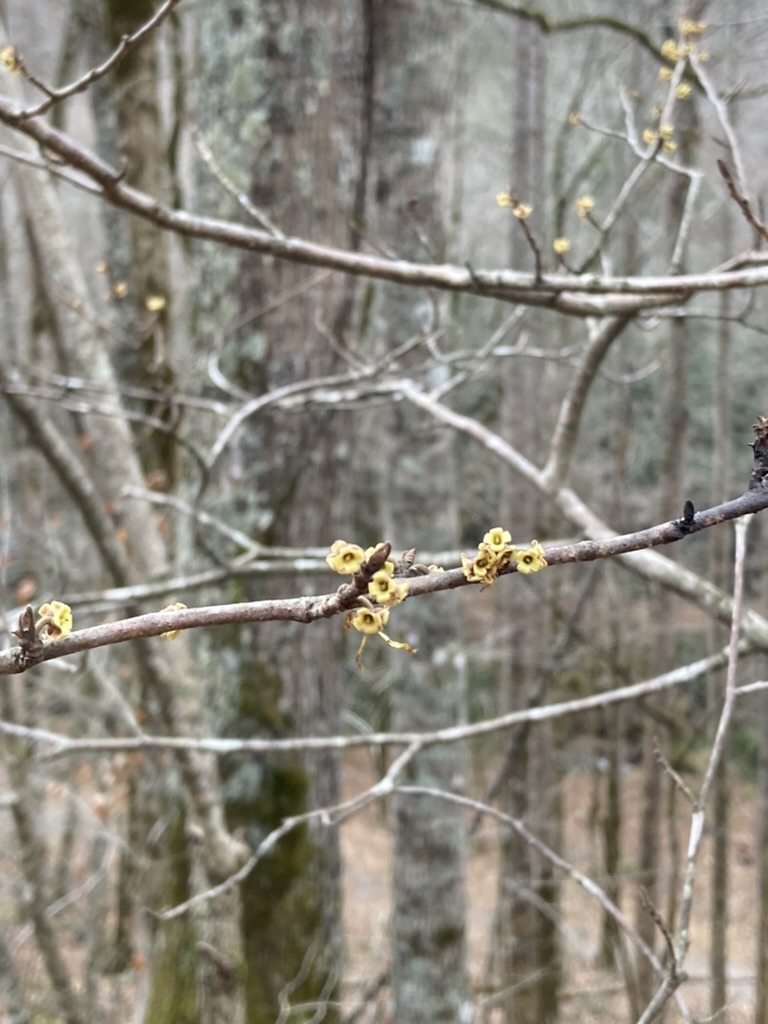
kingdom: Plantae
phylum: Tracheophyta
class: Magnoliopsida
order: Saxifragales
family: Hamamelidaceae
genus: Hamamelis
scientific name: Hamamelis virginiana
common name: Witch-hazel
